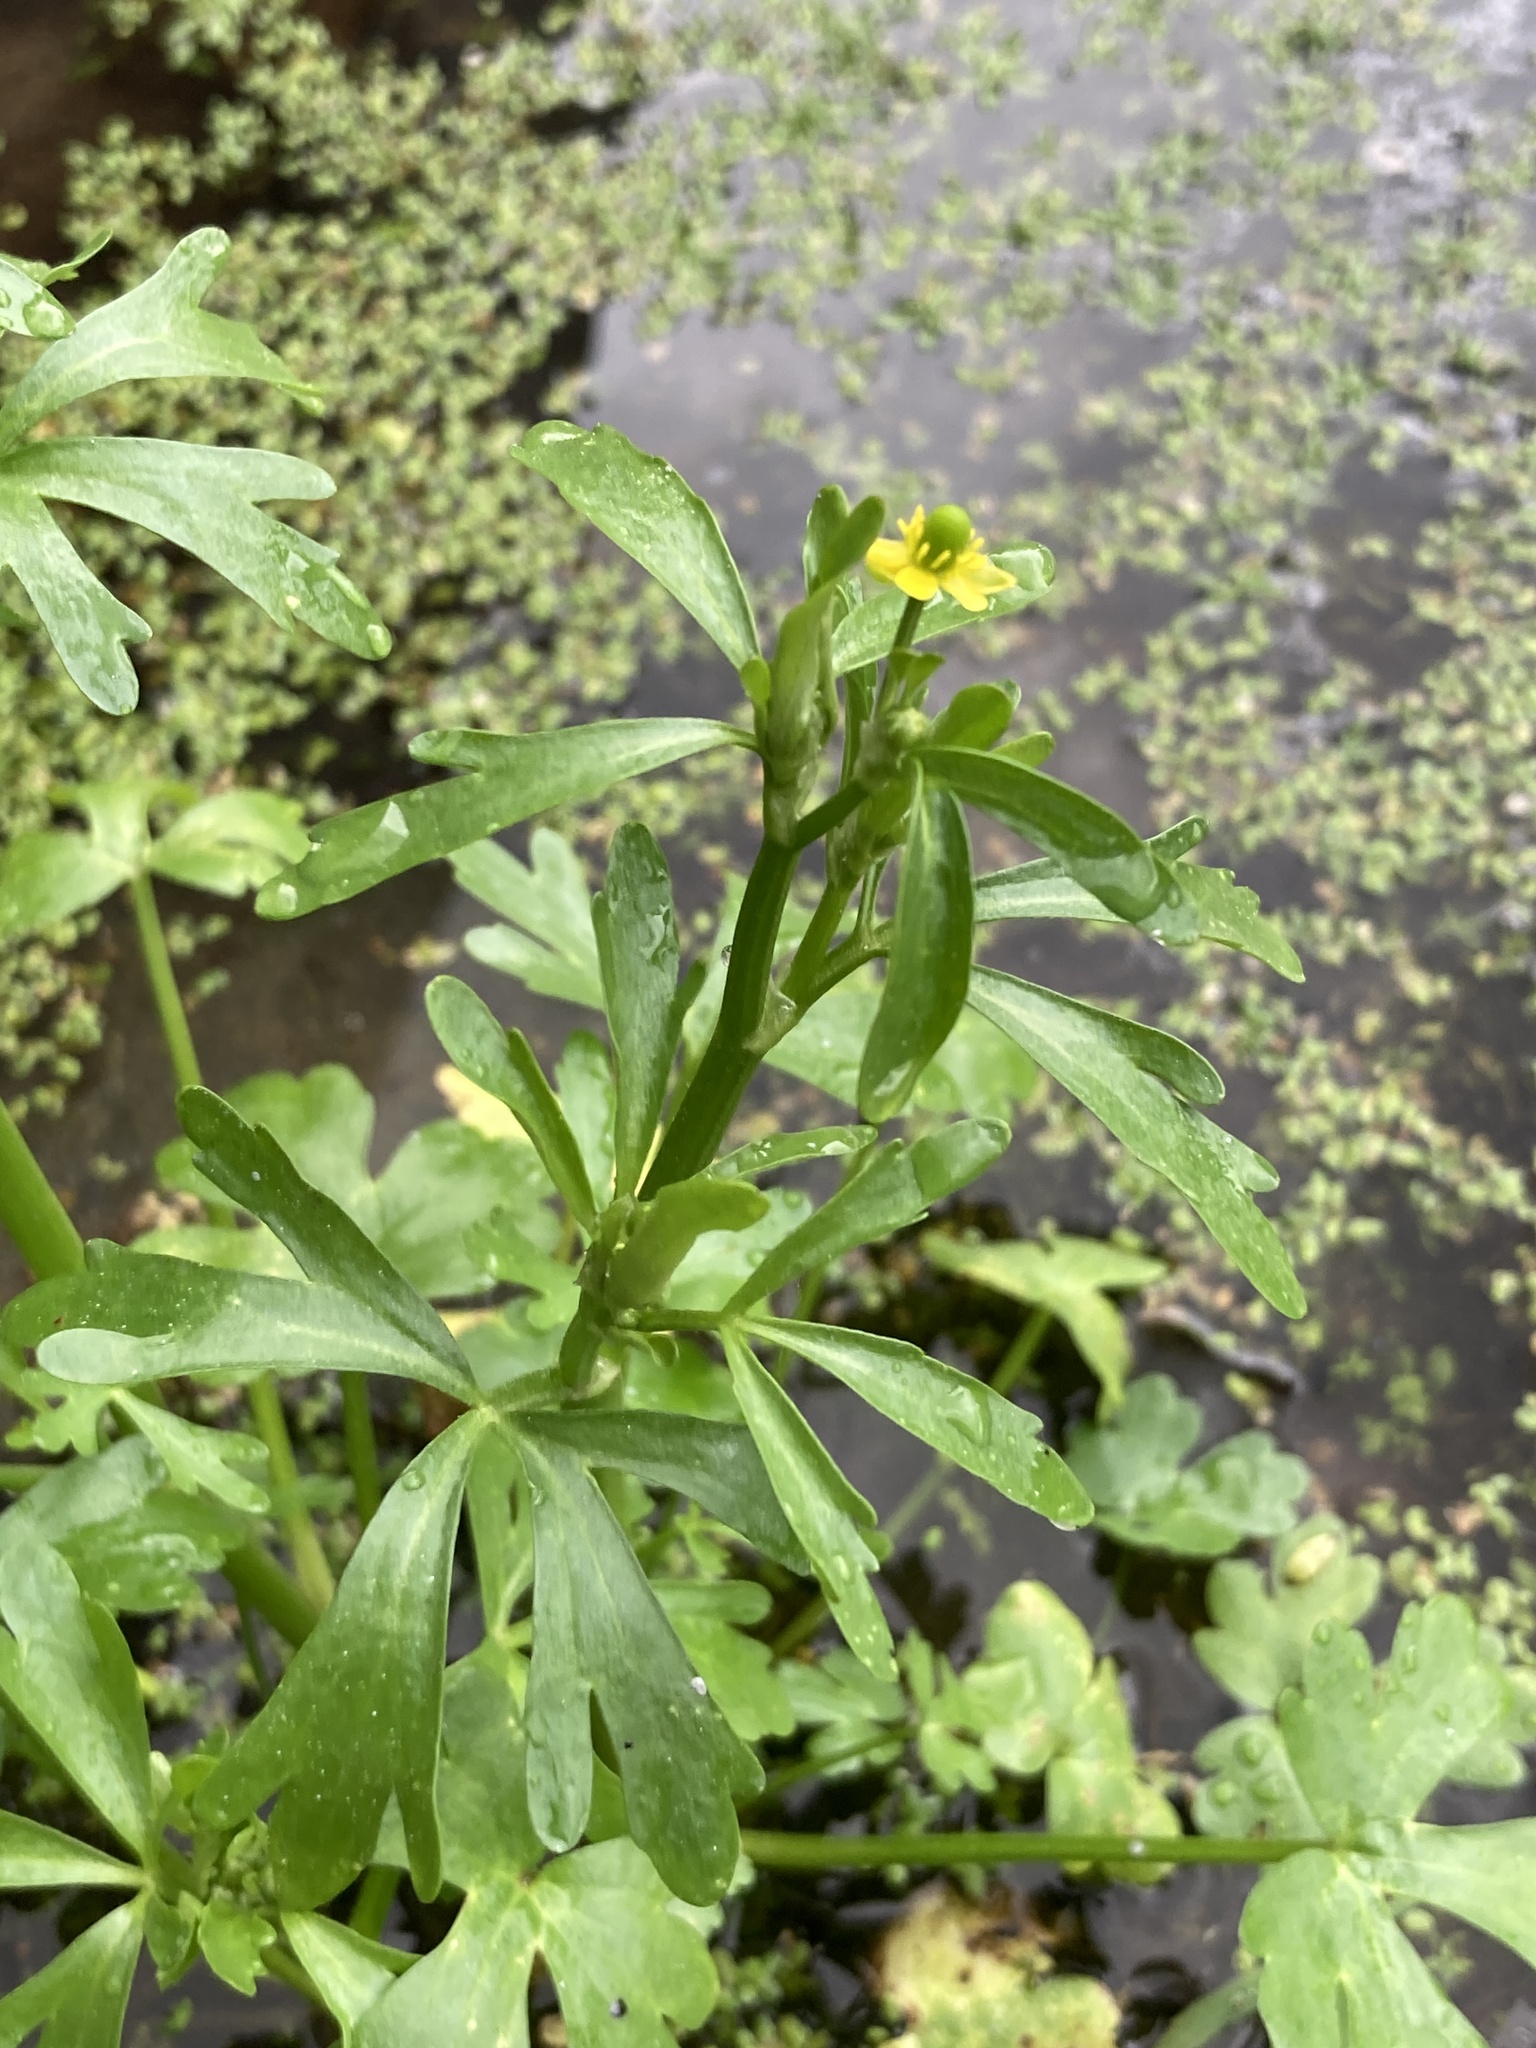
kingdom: Plantae
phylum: Tracheophyta
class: Magnoliopsida
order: Ranunculales
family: Ranunculaceae
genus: Ranunculus
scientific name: Ranunculus sceleratus
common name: Celery-leaved buttercup
